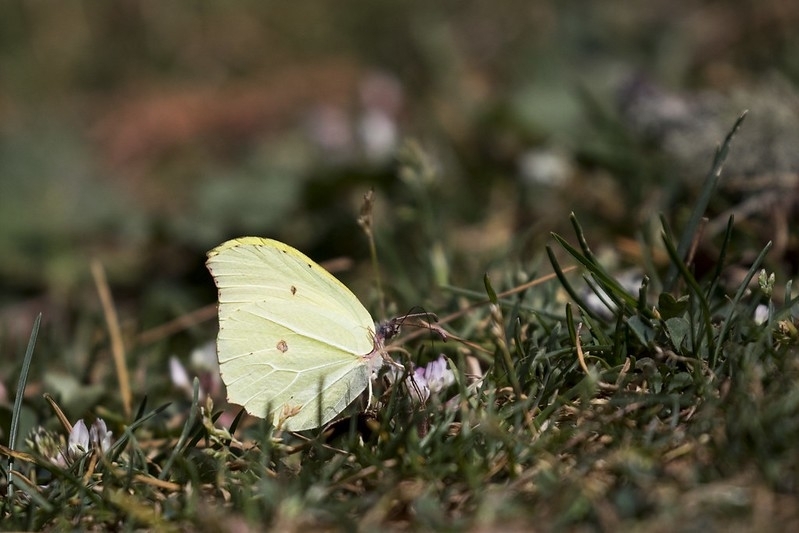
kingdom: Animalia
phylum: Arthropoda
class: Insecta
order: Lepidoptera
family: Pieridae
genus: Gonepteryx
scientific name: Gonepteryx
